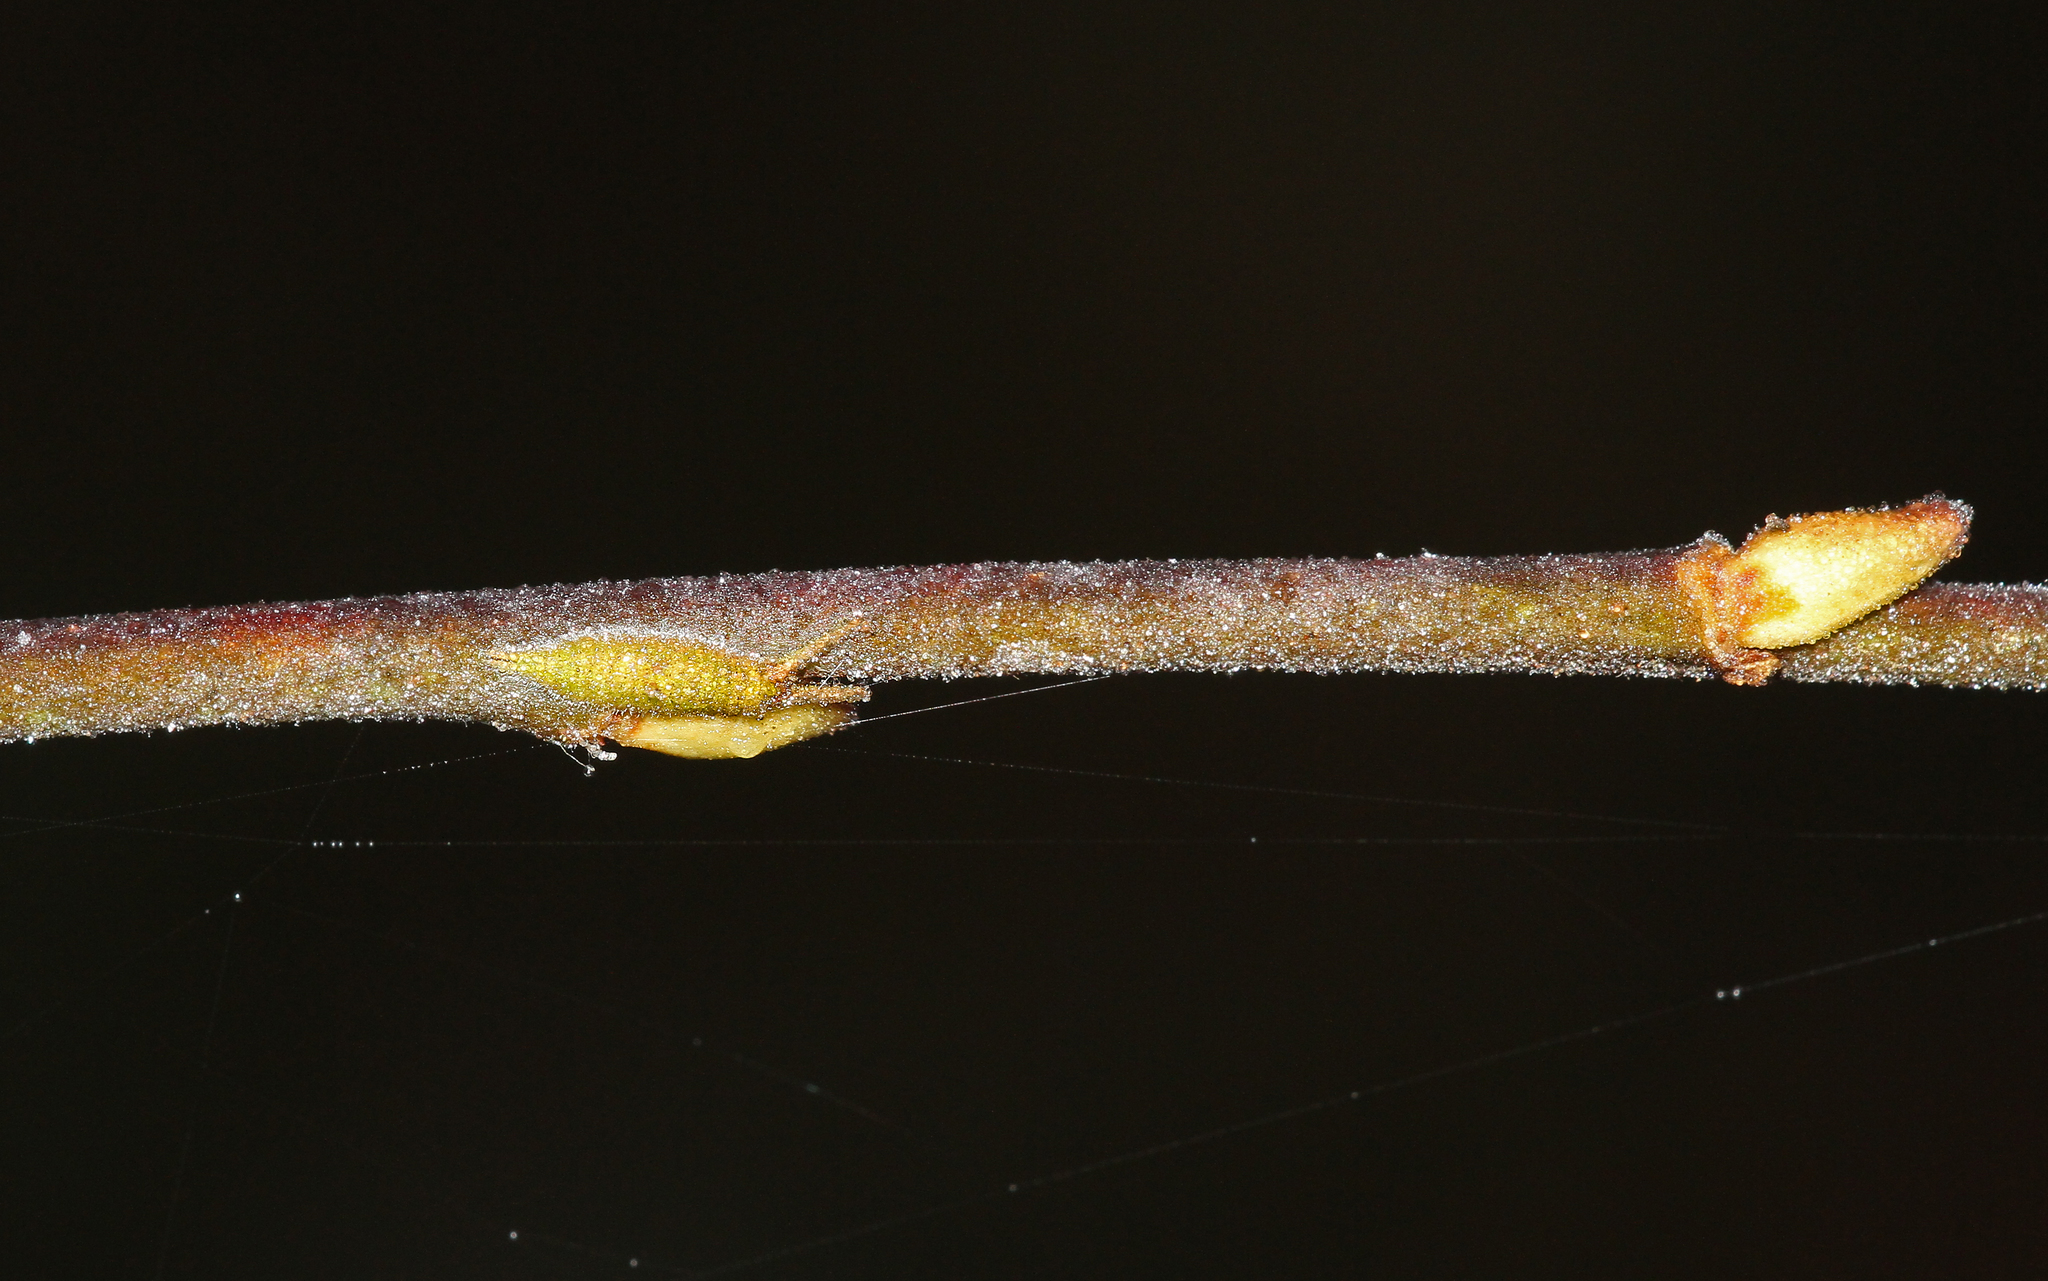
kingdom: Animalia
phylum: Arthropoda
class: Insecta
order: Lepidoptera
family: Nymphalidae
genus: Apatura
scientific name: Apatura iris
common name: Purple emperor
